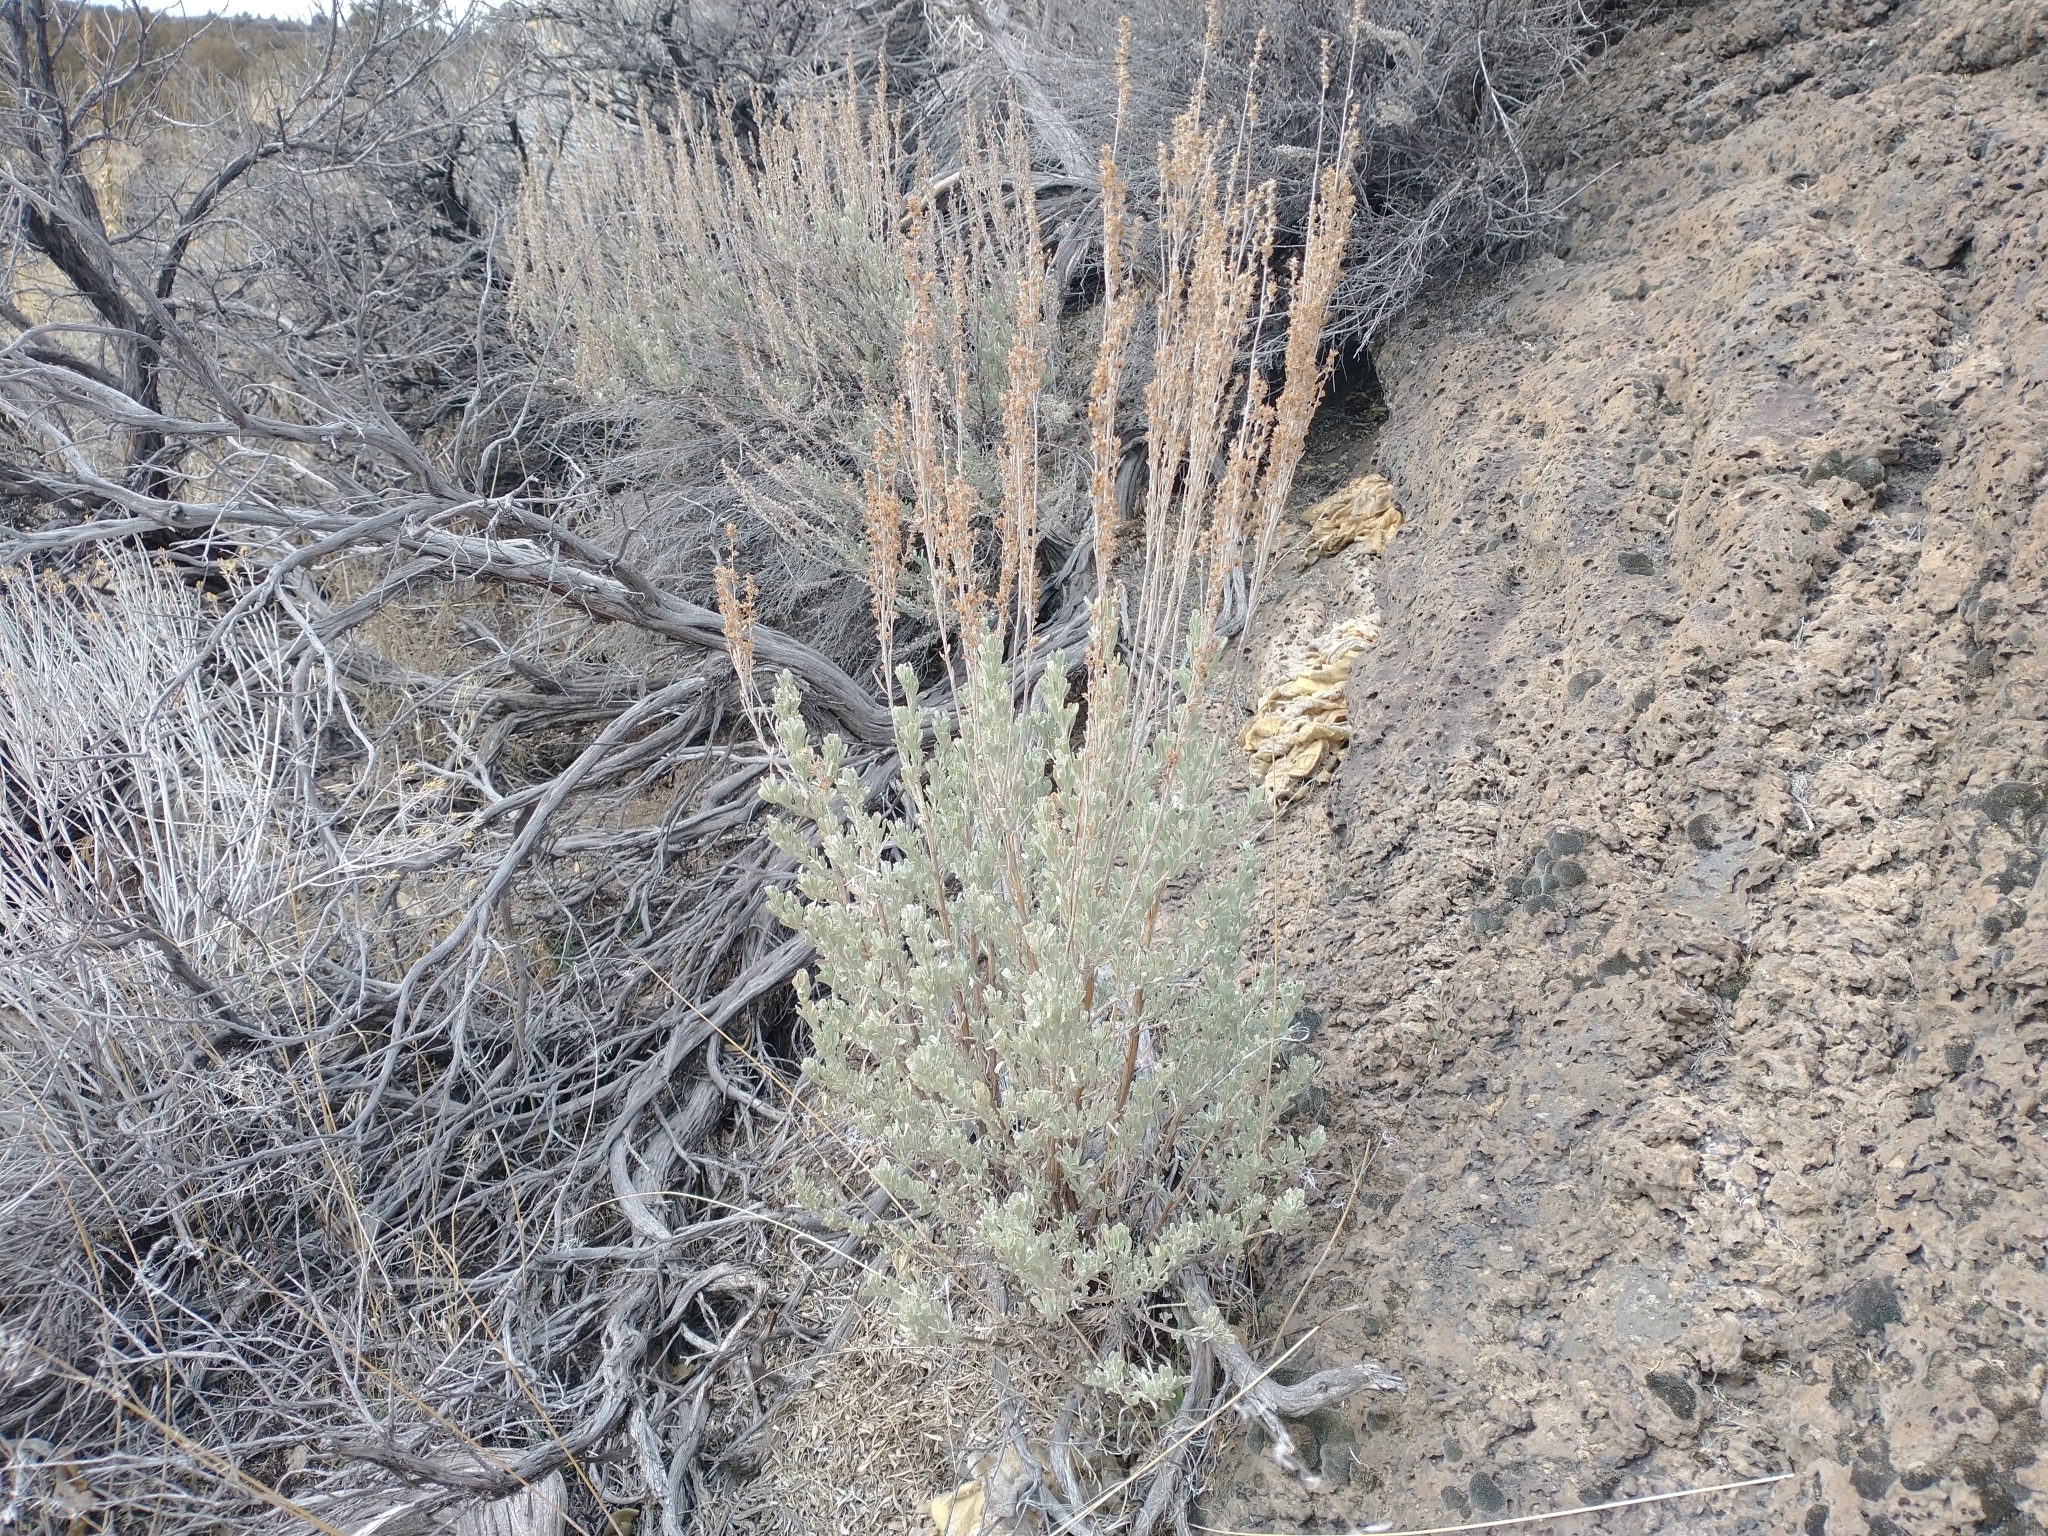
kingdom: Plantae
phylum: Tracheophyta
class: Magnoliopsida
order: Asterales
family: Asteraceae
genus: Artemisia
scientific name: Artemisia tridentata
